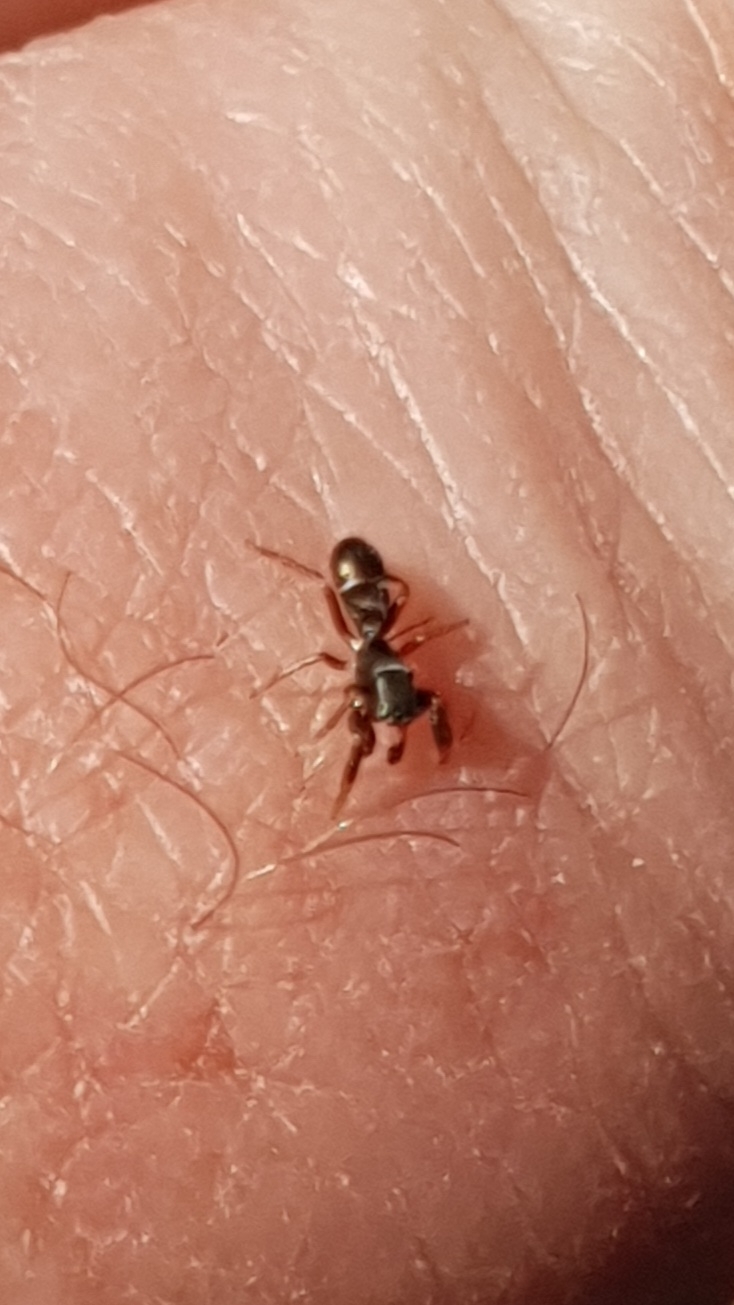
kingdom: Animalia
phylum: Arthropoda
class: Arachnida
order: Araneae
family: Salticidae
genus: Synageles
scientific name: Synageles venator
